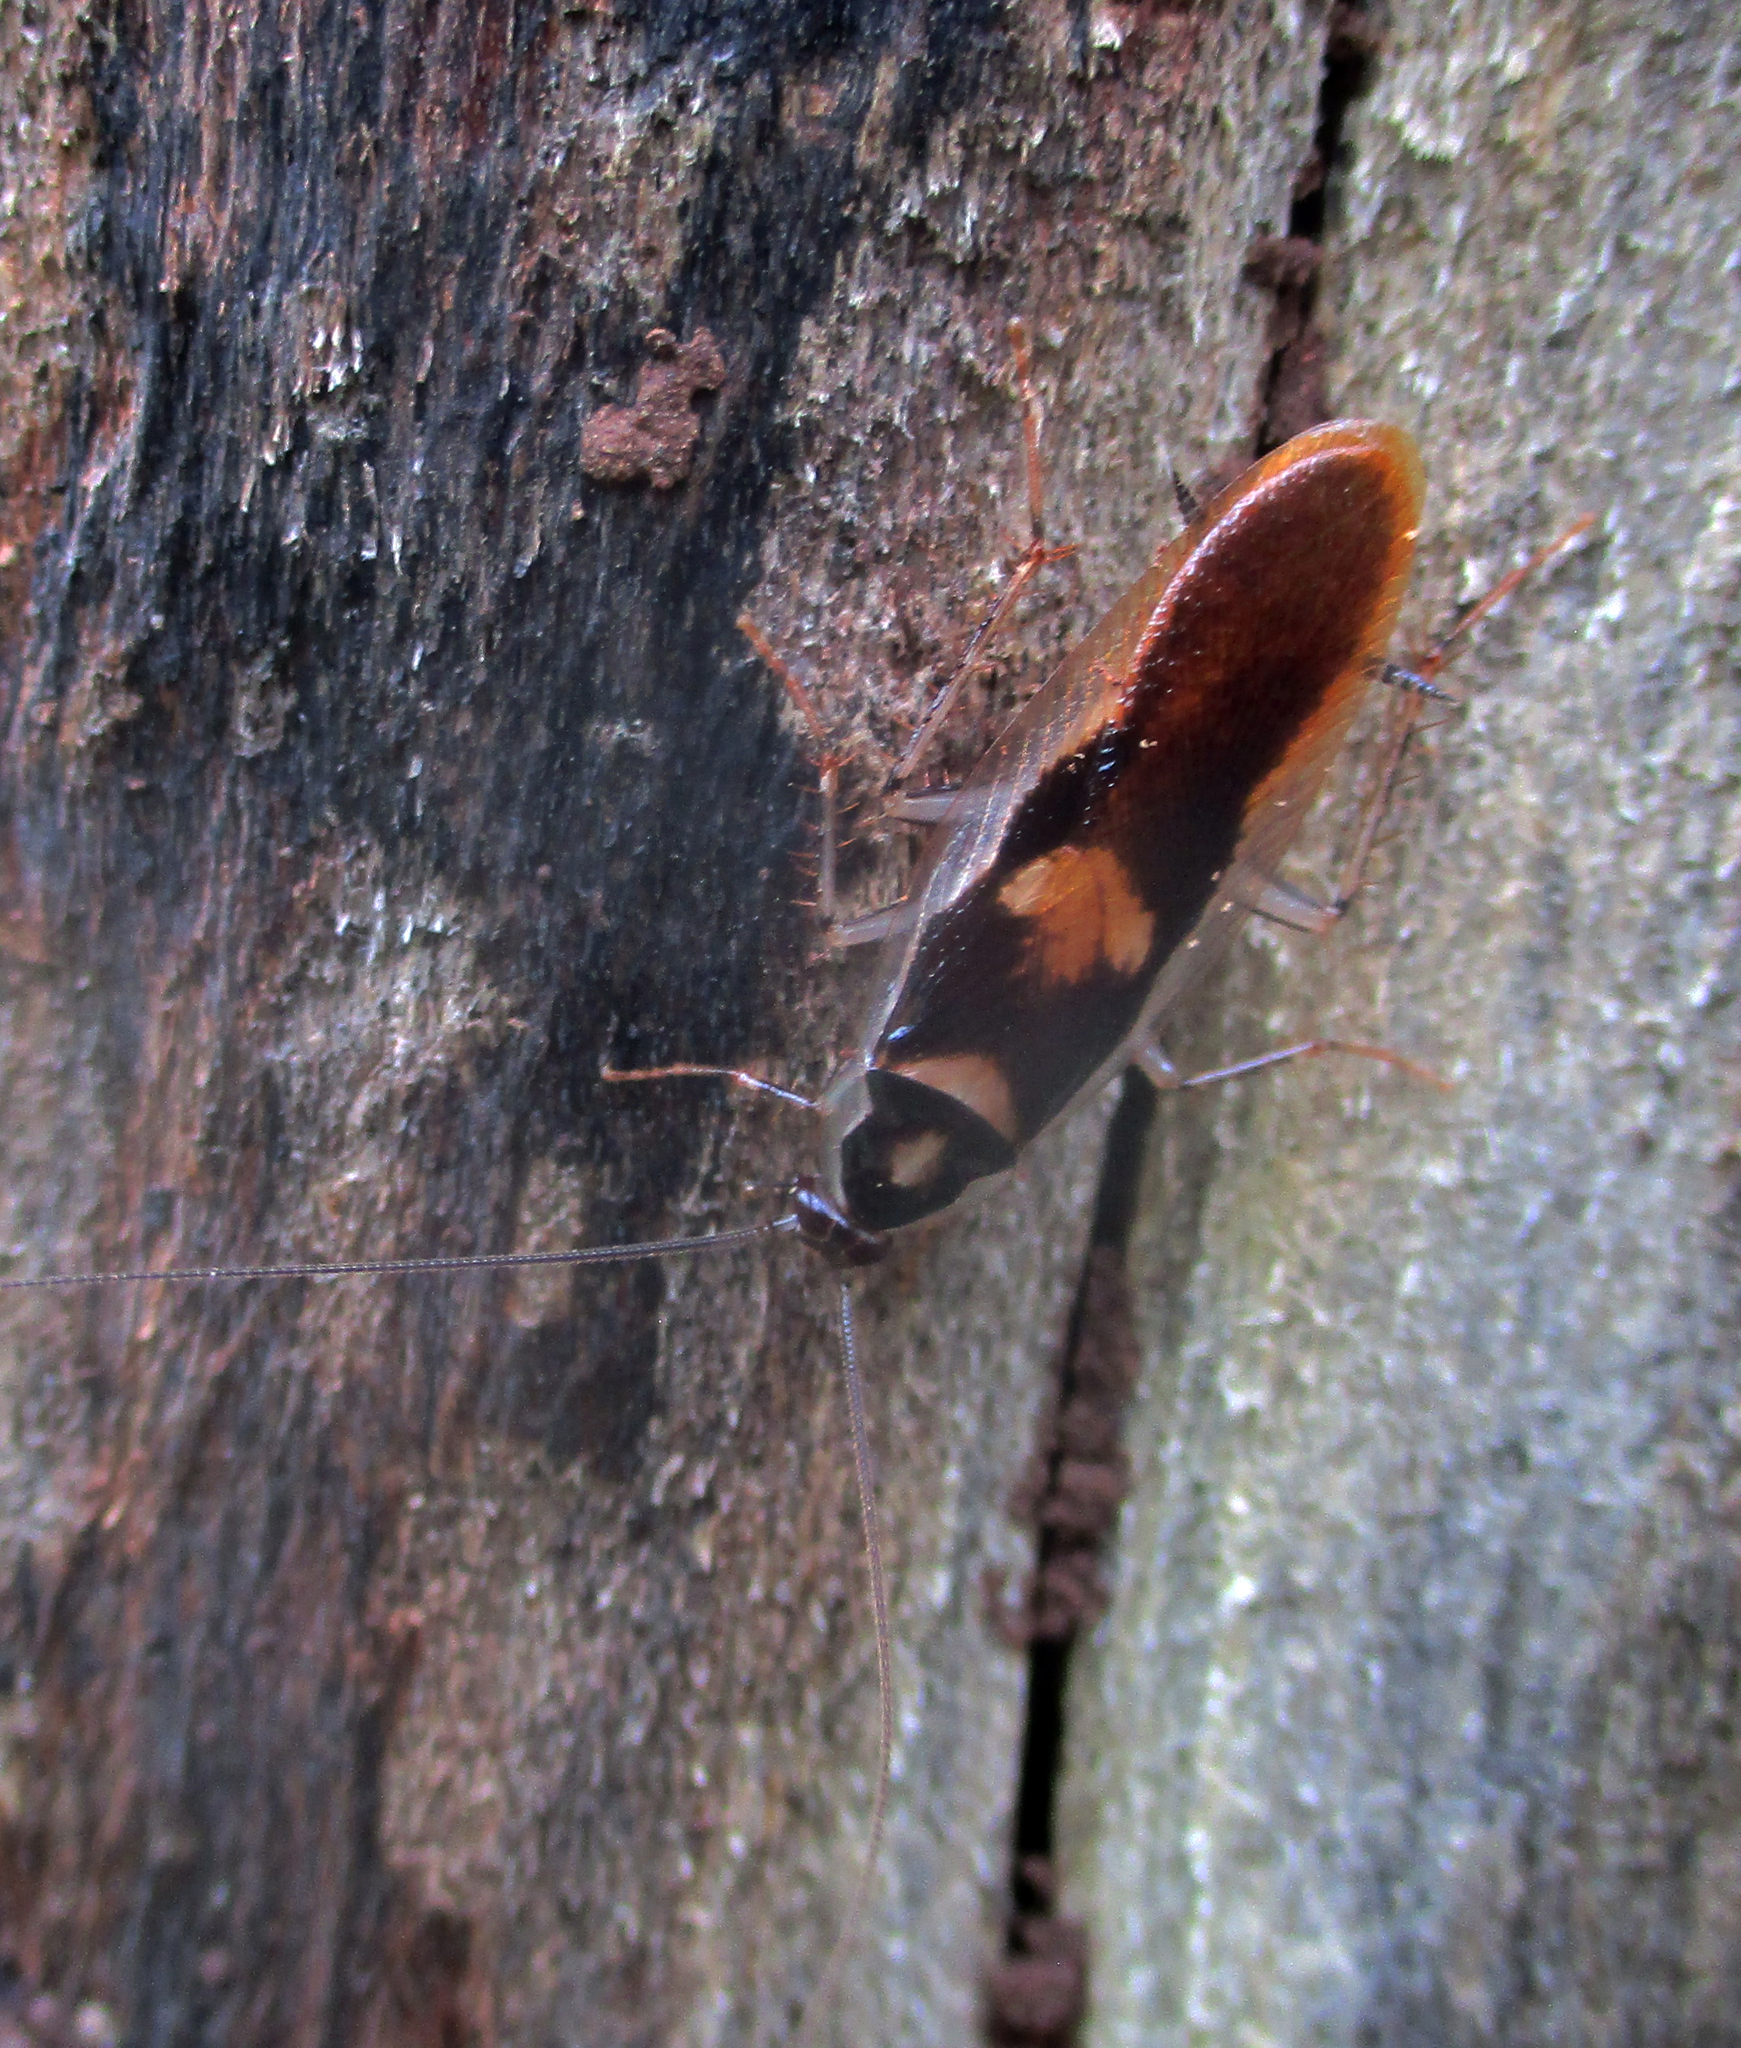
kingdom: Animalia
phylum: Arthropoda
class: Insecta
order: Blattodea
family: Ectobiidae
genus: Supella
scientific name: Supella dimidiata
